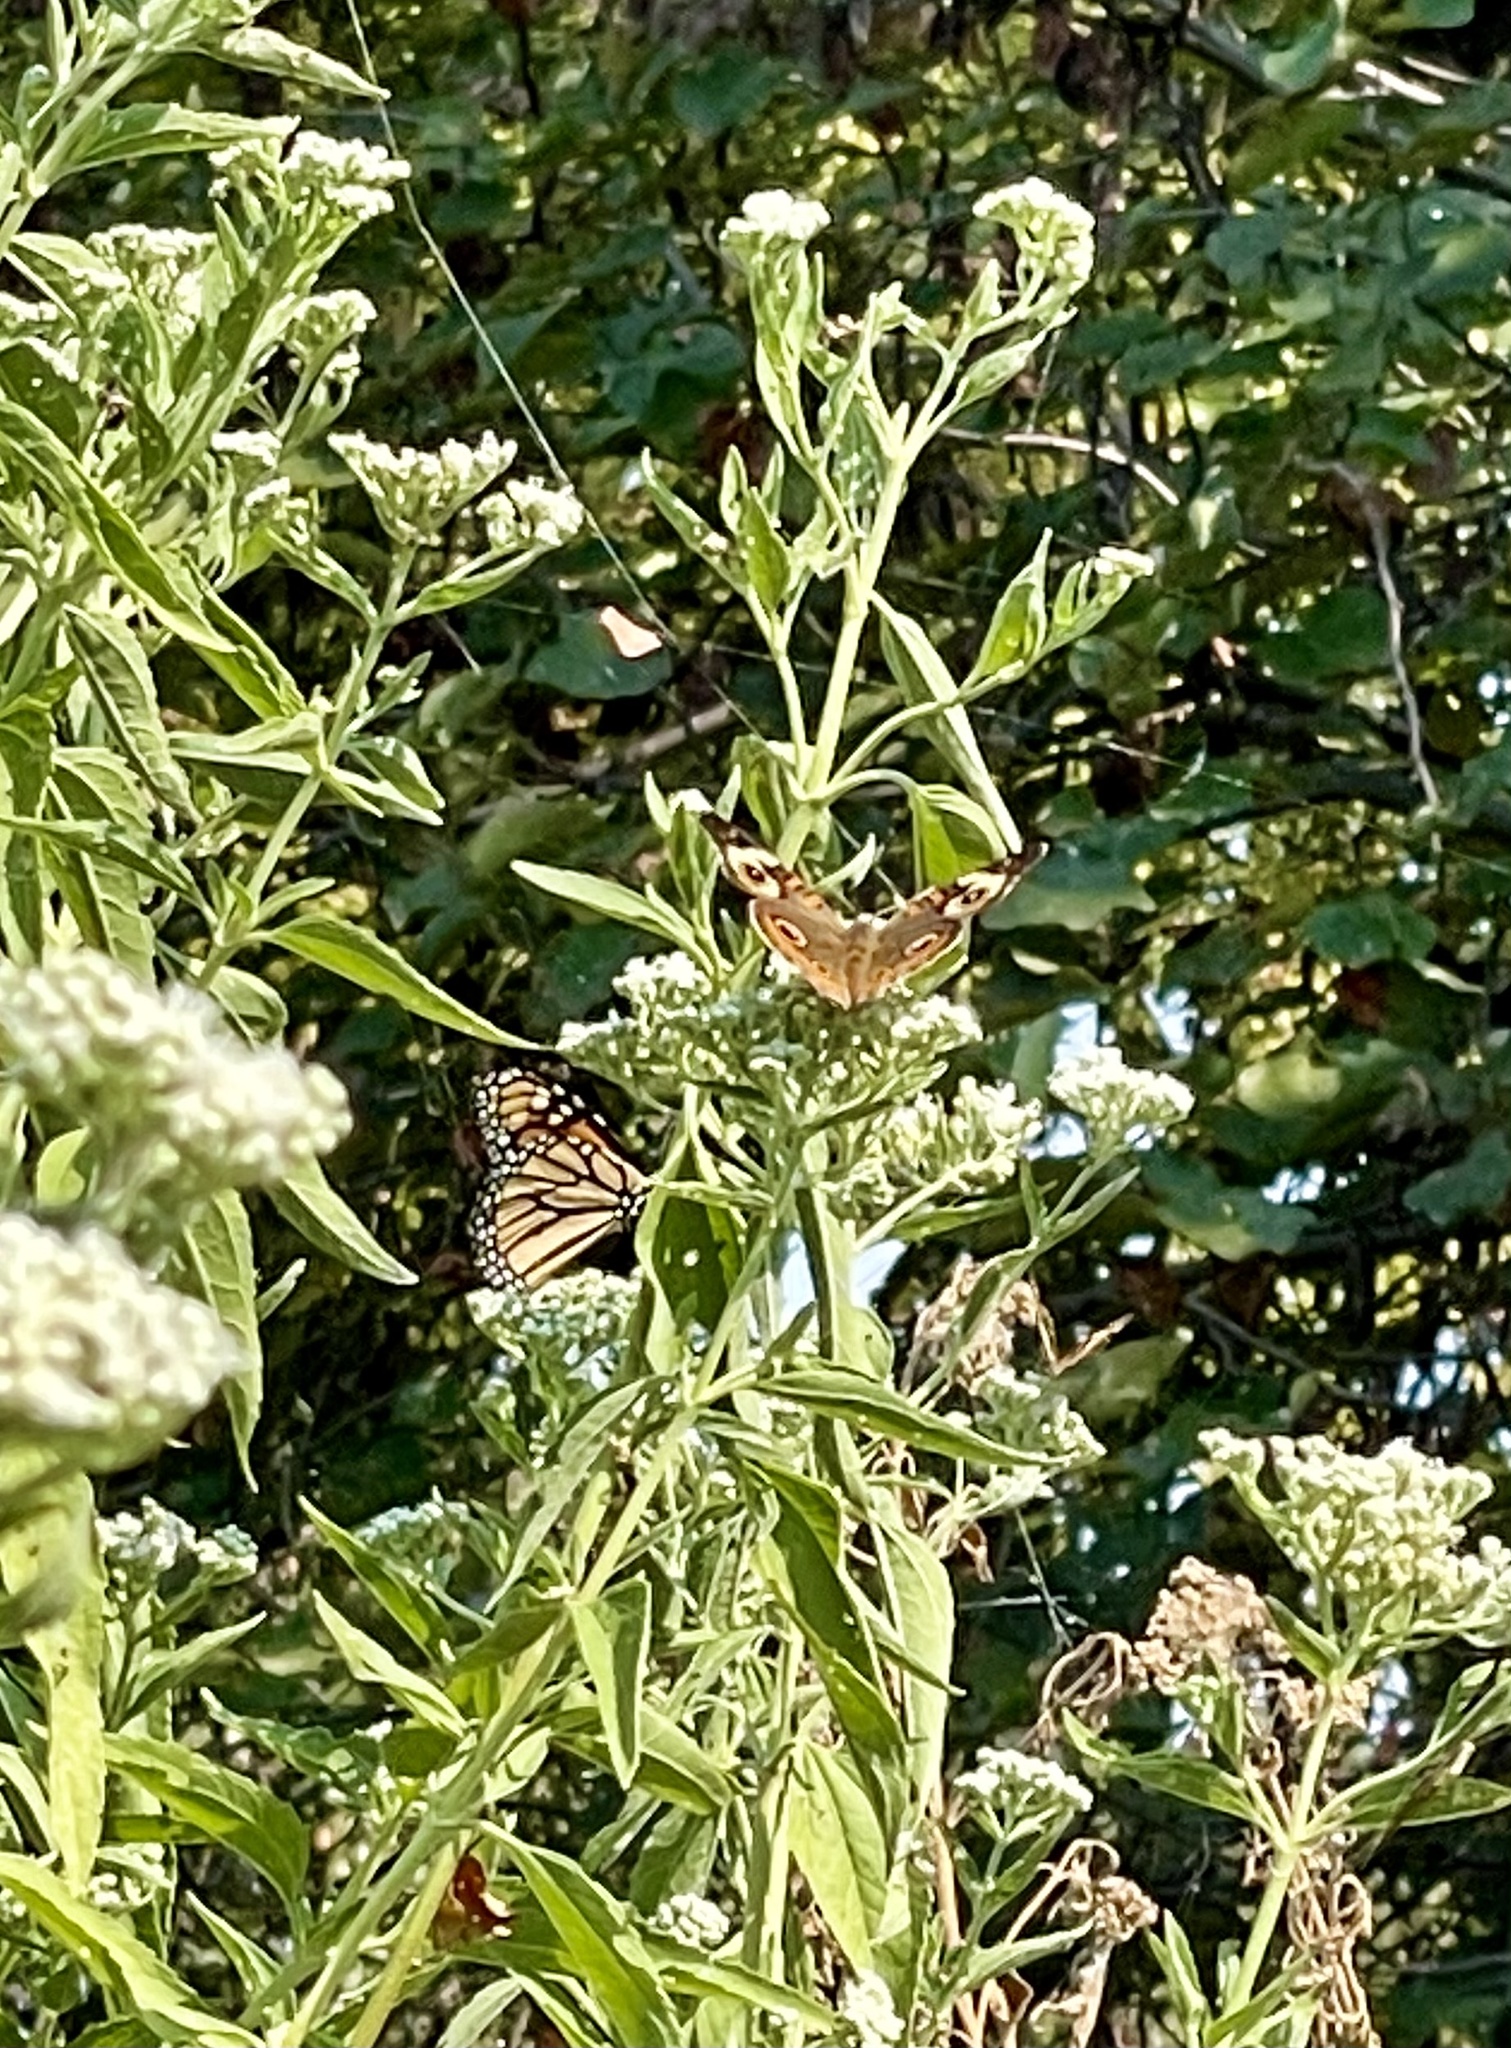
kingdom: Animalia
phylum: Arthropoda
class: Insecta
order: Lepidoptera
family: Nymphalidae
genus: Danaus
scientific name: Danaus plexippus
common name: Monarch
